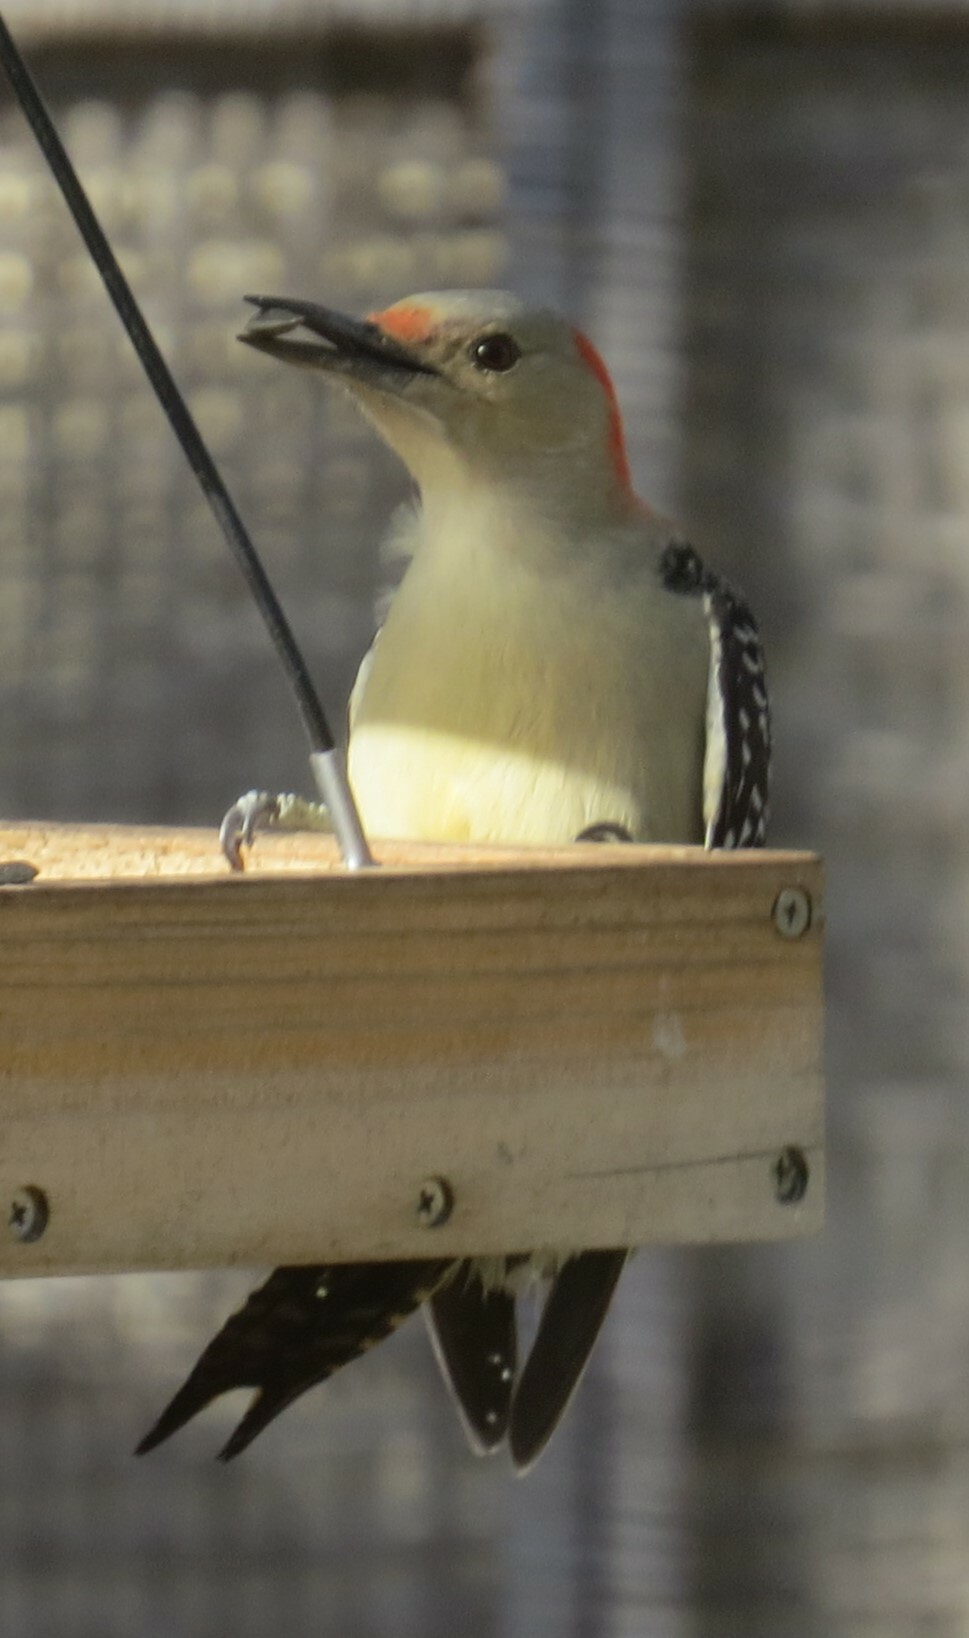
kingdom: Animalia
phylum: Chordata
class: Aves
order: Piciformes
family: Picidae
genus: Melanerpes
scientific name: Melanerpes carolinus
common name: Red-bellied woodpecker
